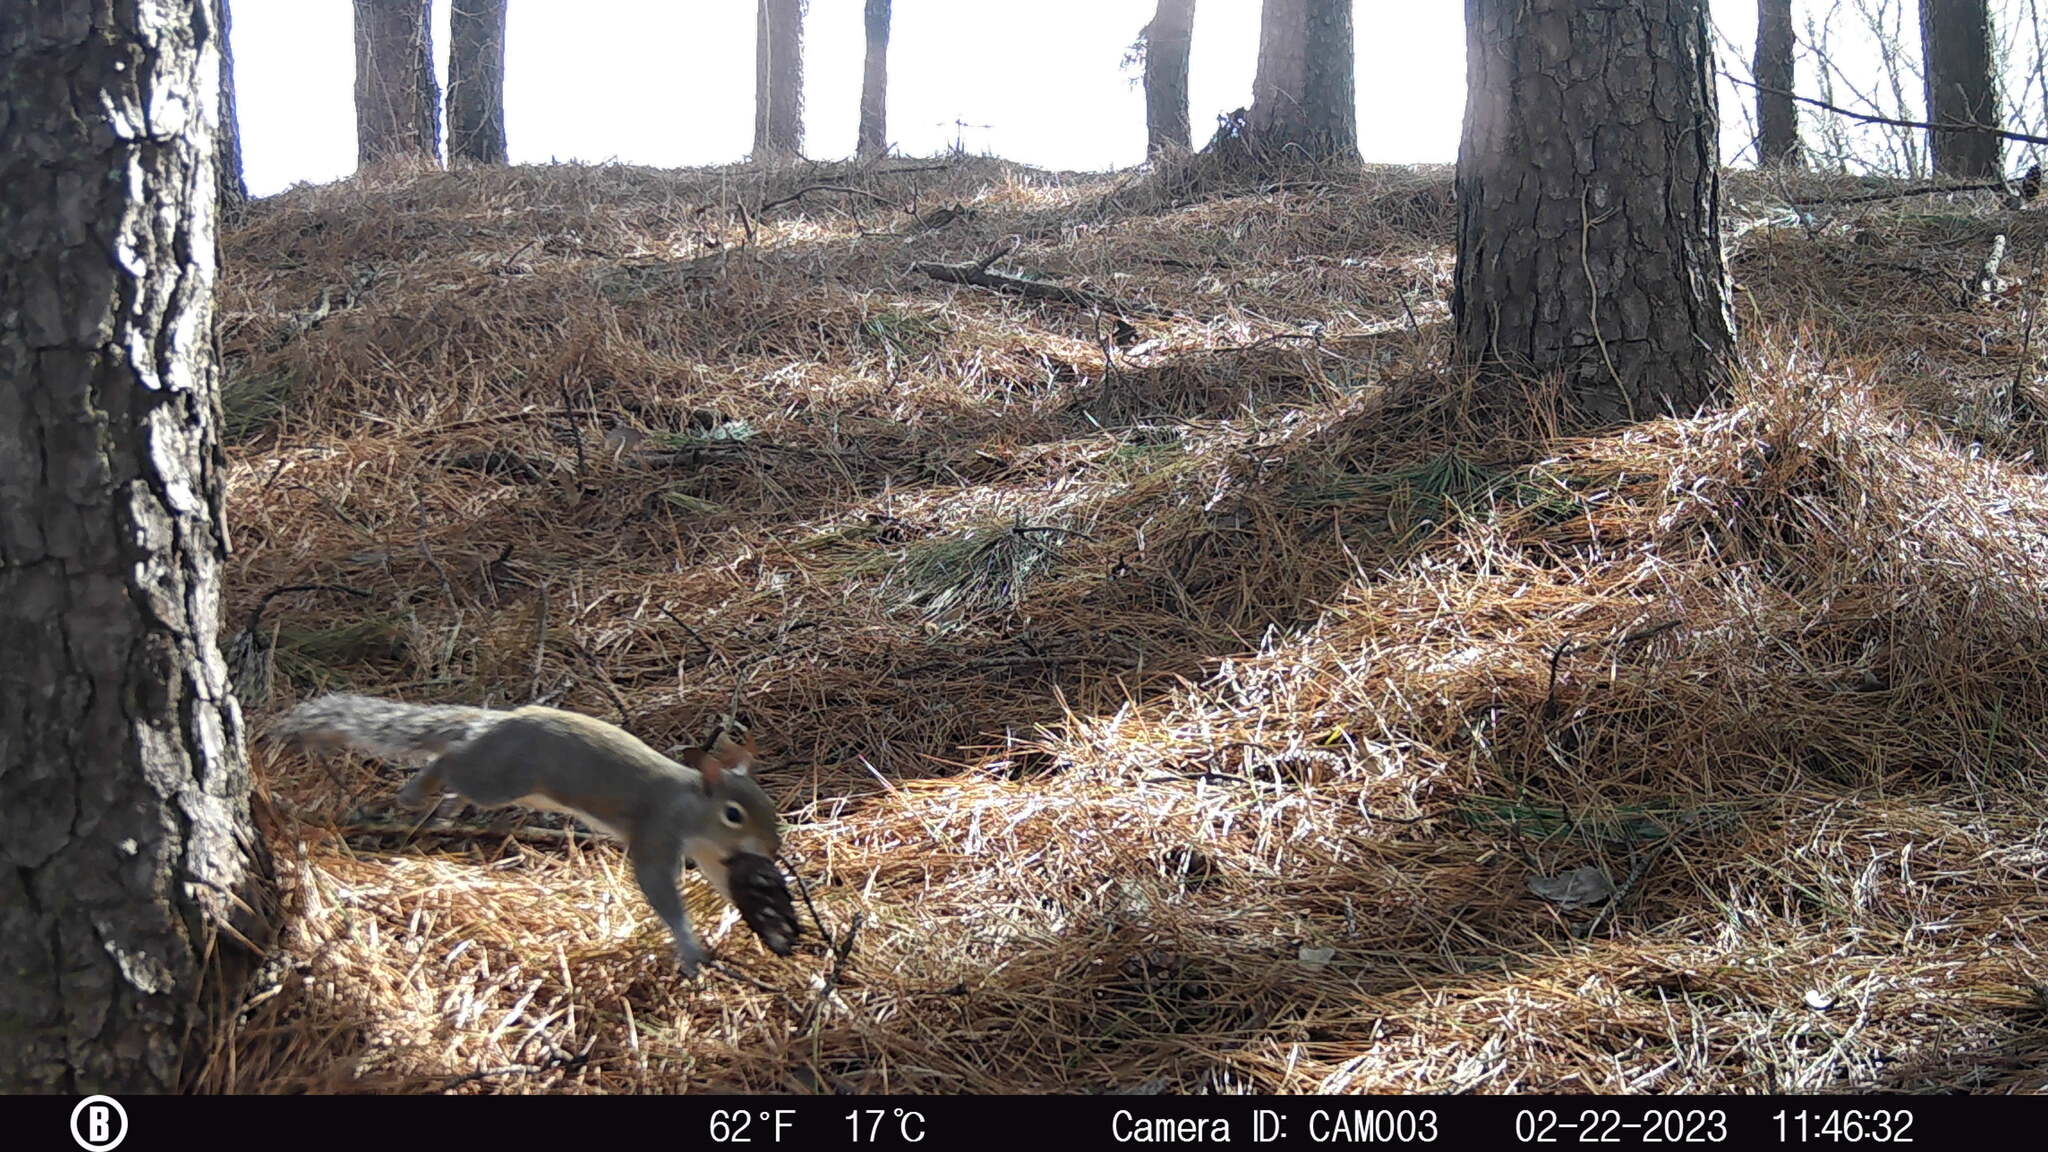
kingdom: Animalia
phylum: Chordata
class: Mammalia
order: Rodentia
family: Sciuridae
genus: Sciurus
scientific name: Sciurus carolinensis
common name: Eastern gray squirrel
